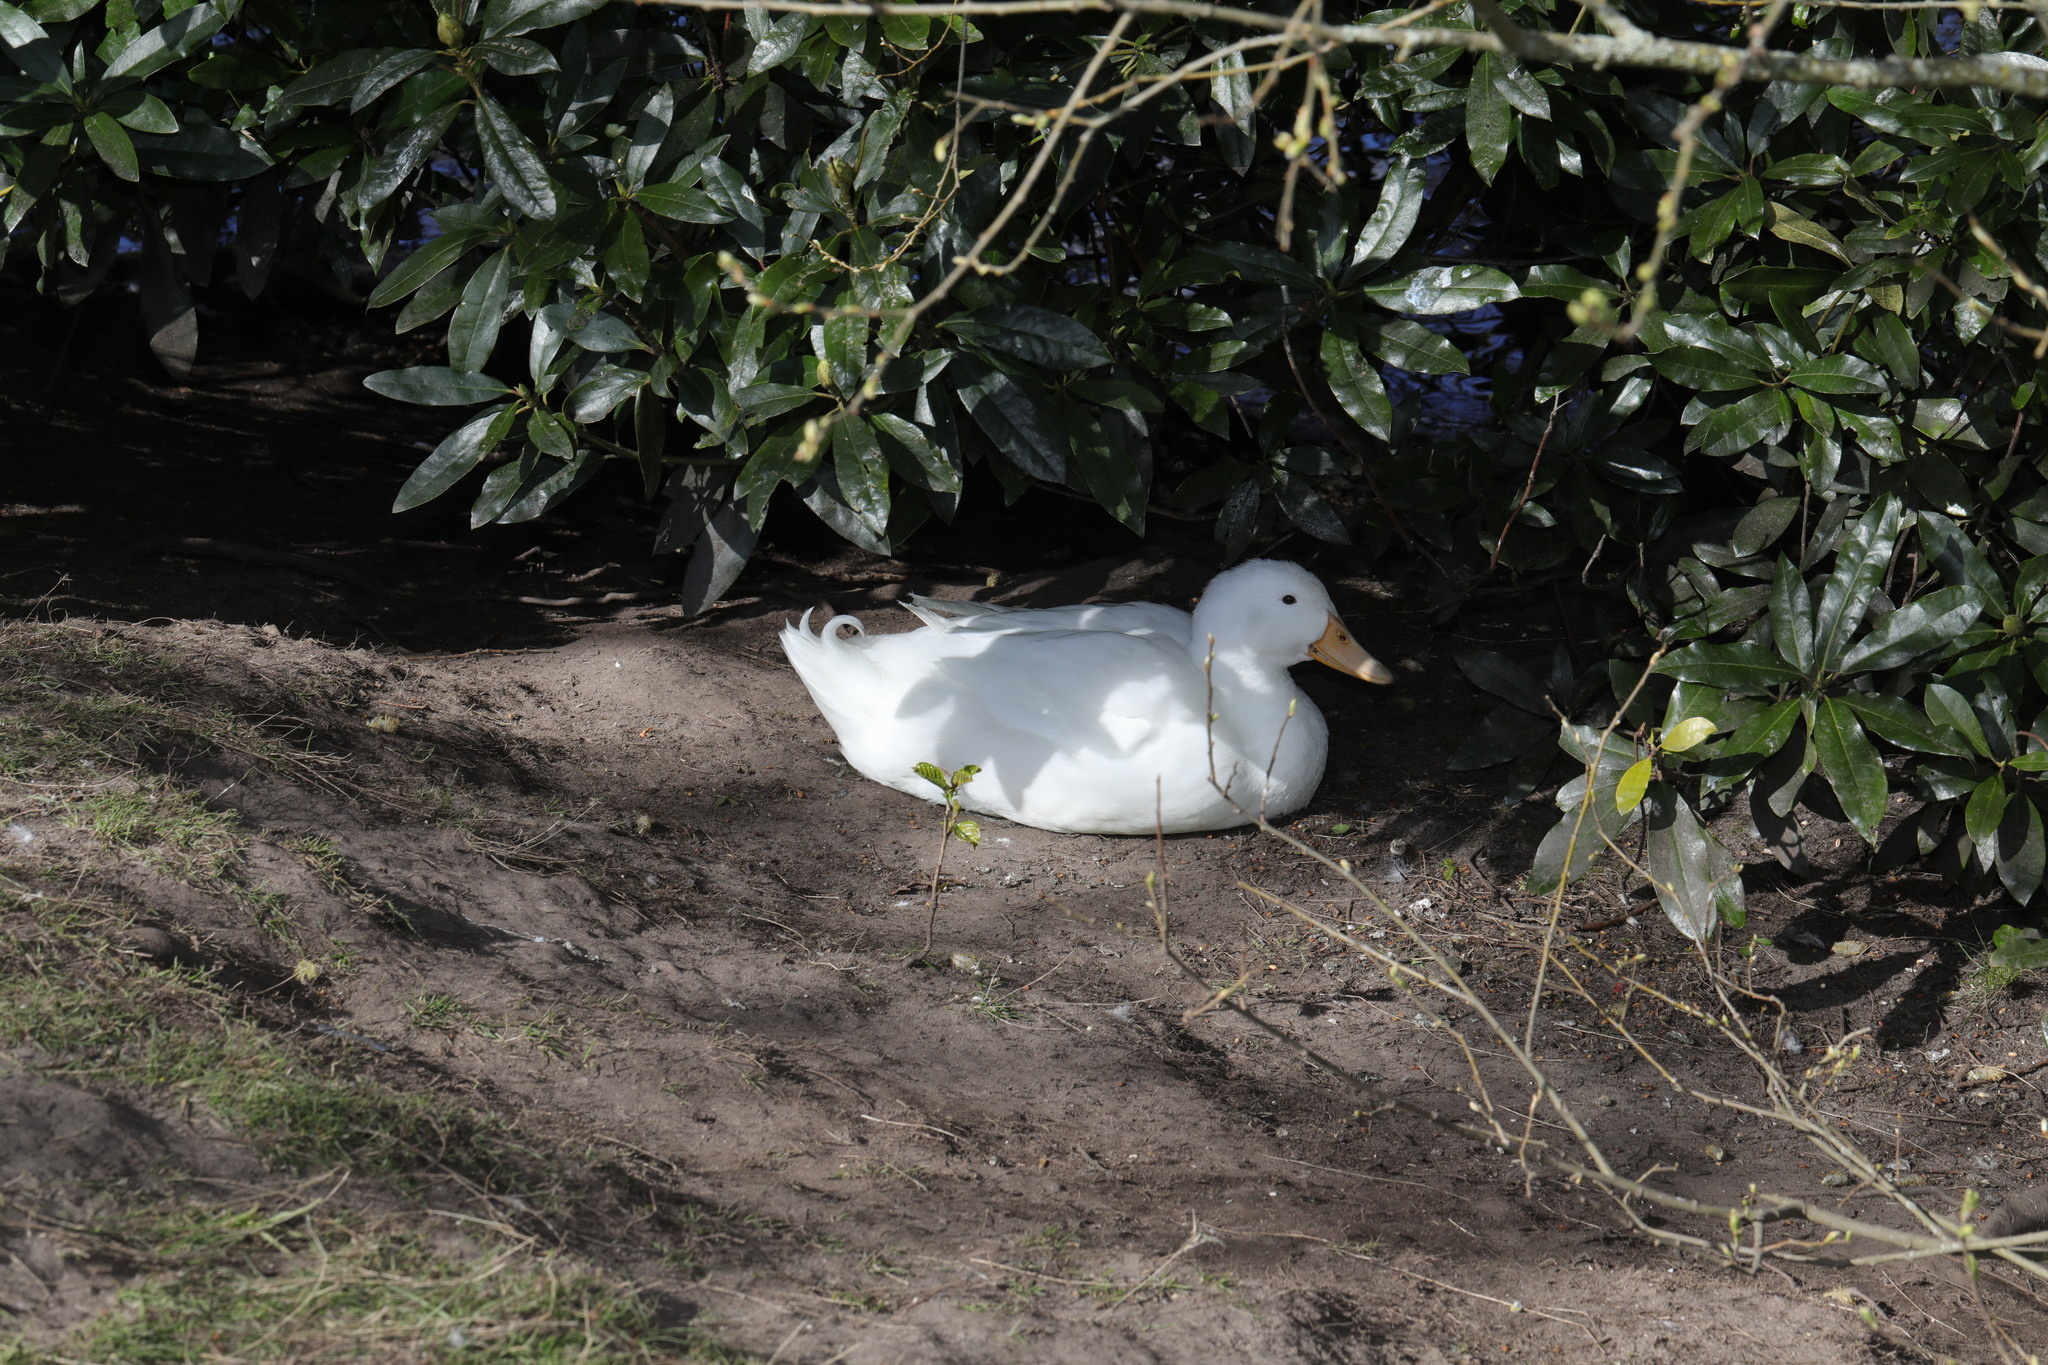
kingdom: Animalia
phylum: Chordata
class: Aves
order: Anseriformes
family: Anatidae
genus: Anas
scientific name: Anas platyrhynchos
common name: Mallard
